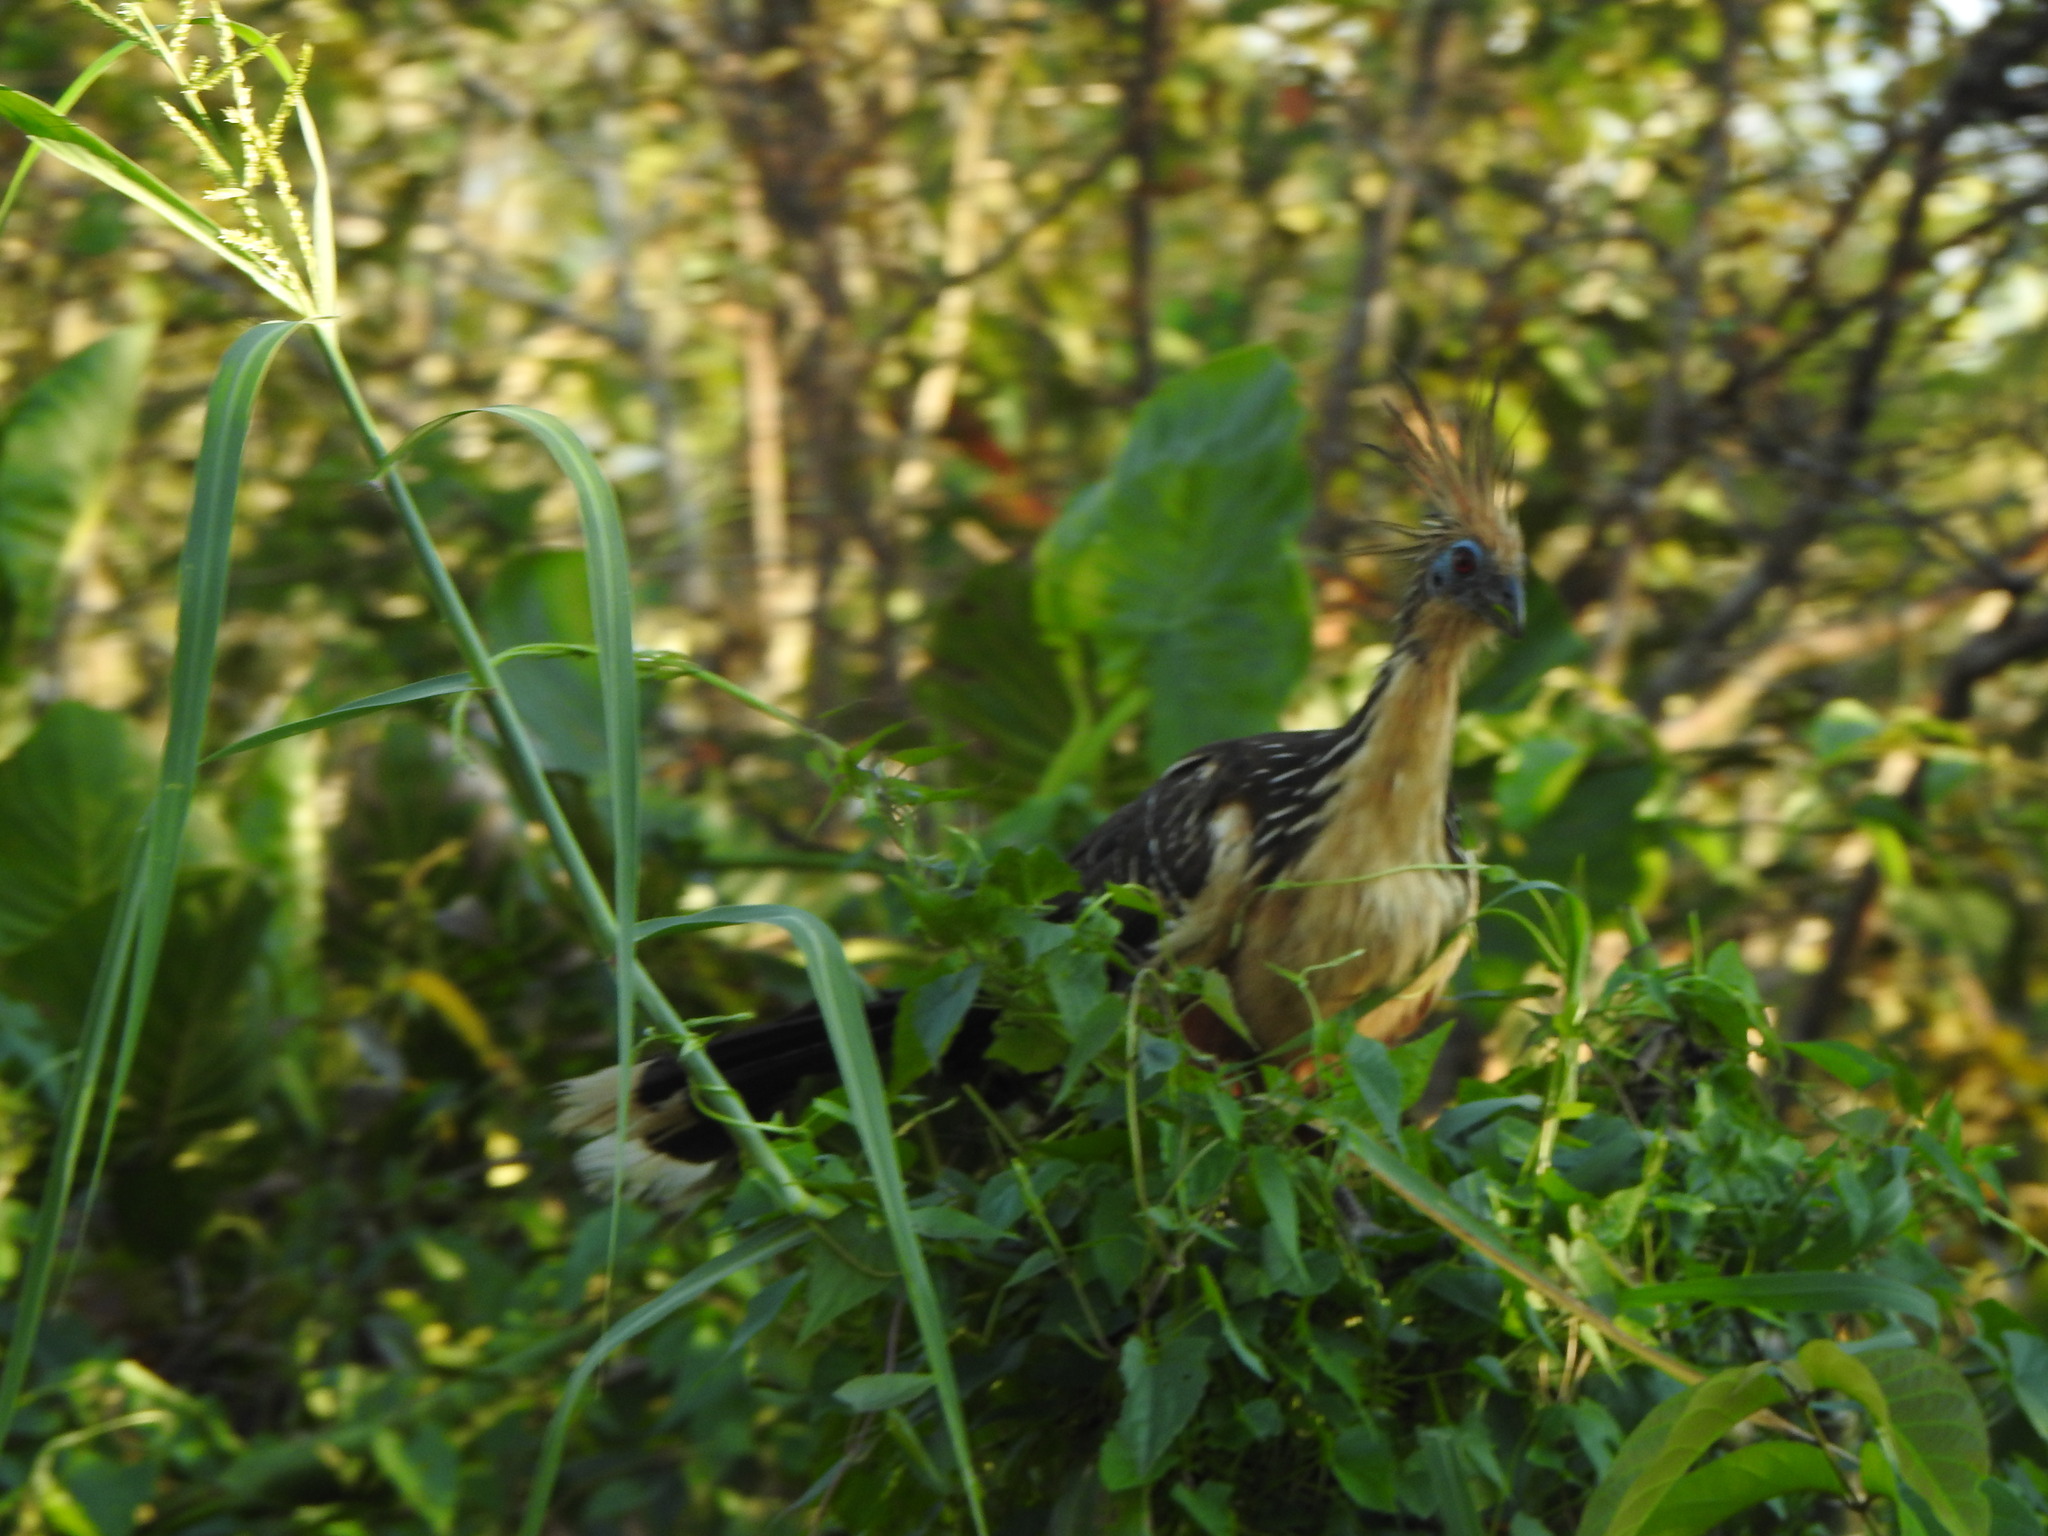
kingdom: Animalia
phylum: Chordata
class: Aves
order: Opisthocomiformes
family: Opisthocomidae
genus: Opisthocomus
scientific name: Opisthocomus hoazin
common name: Hoatzin
